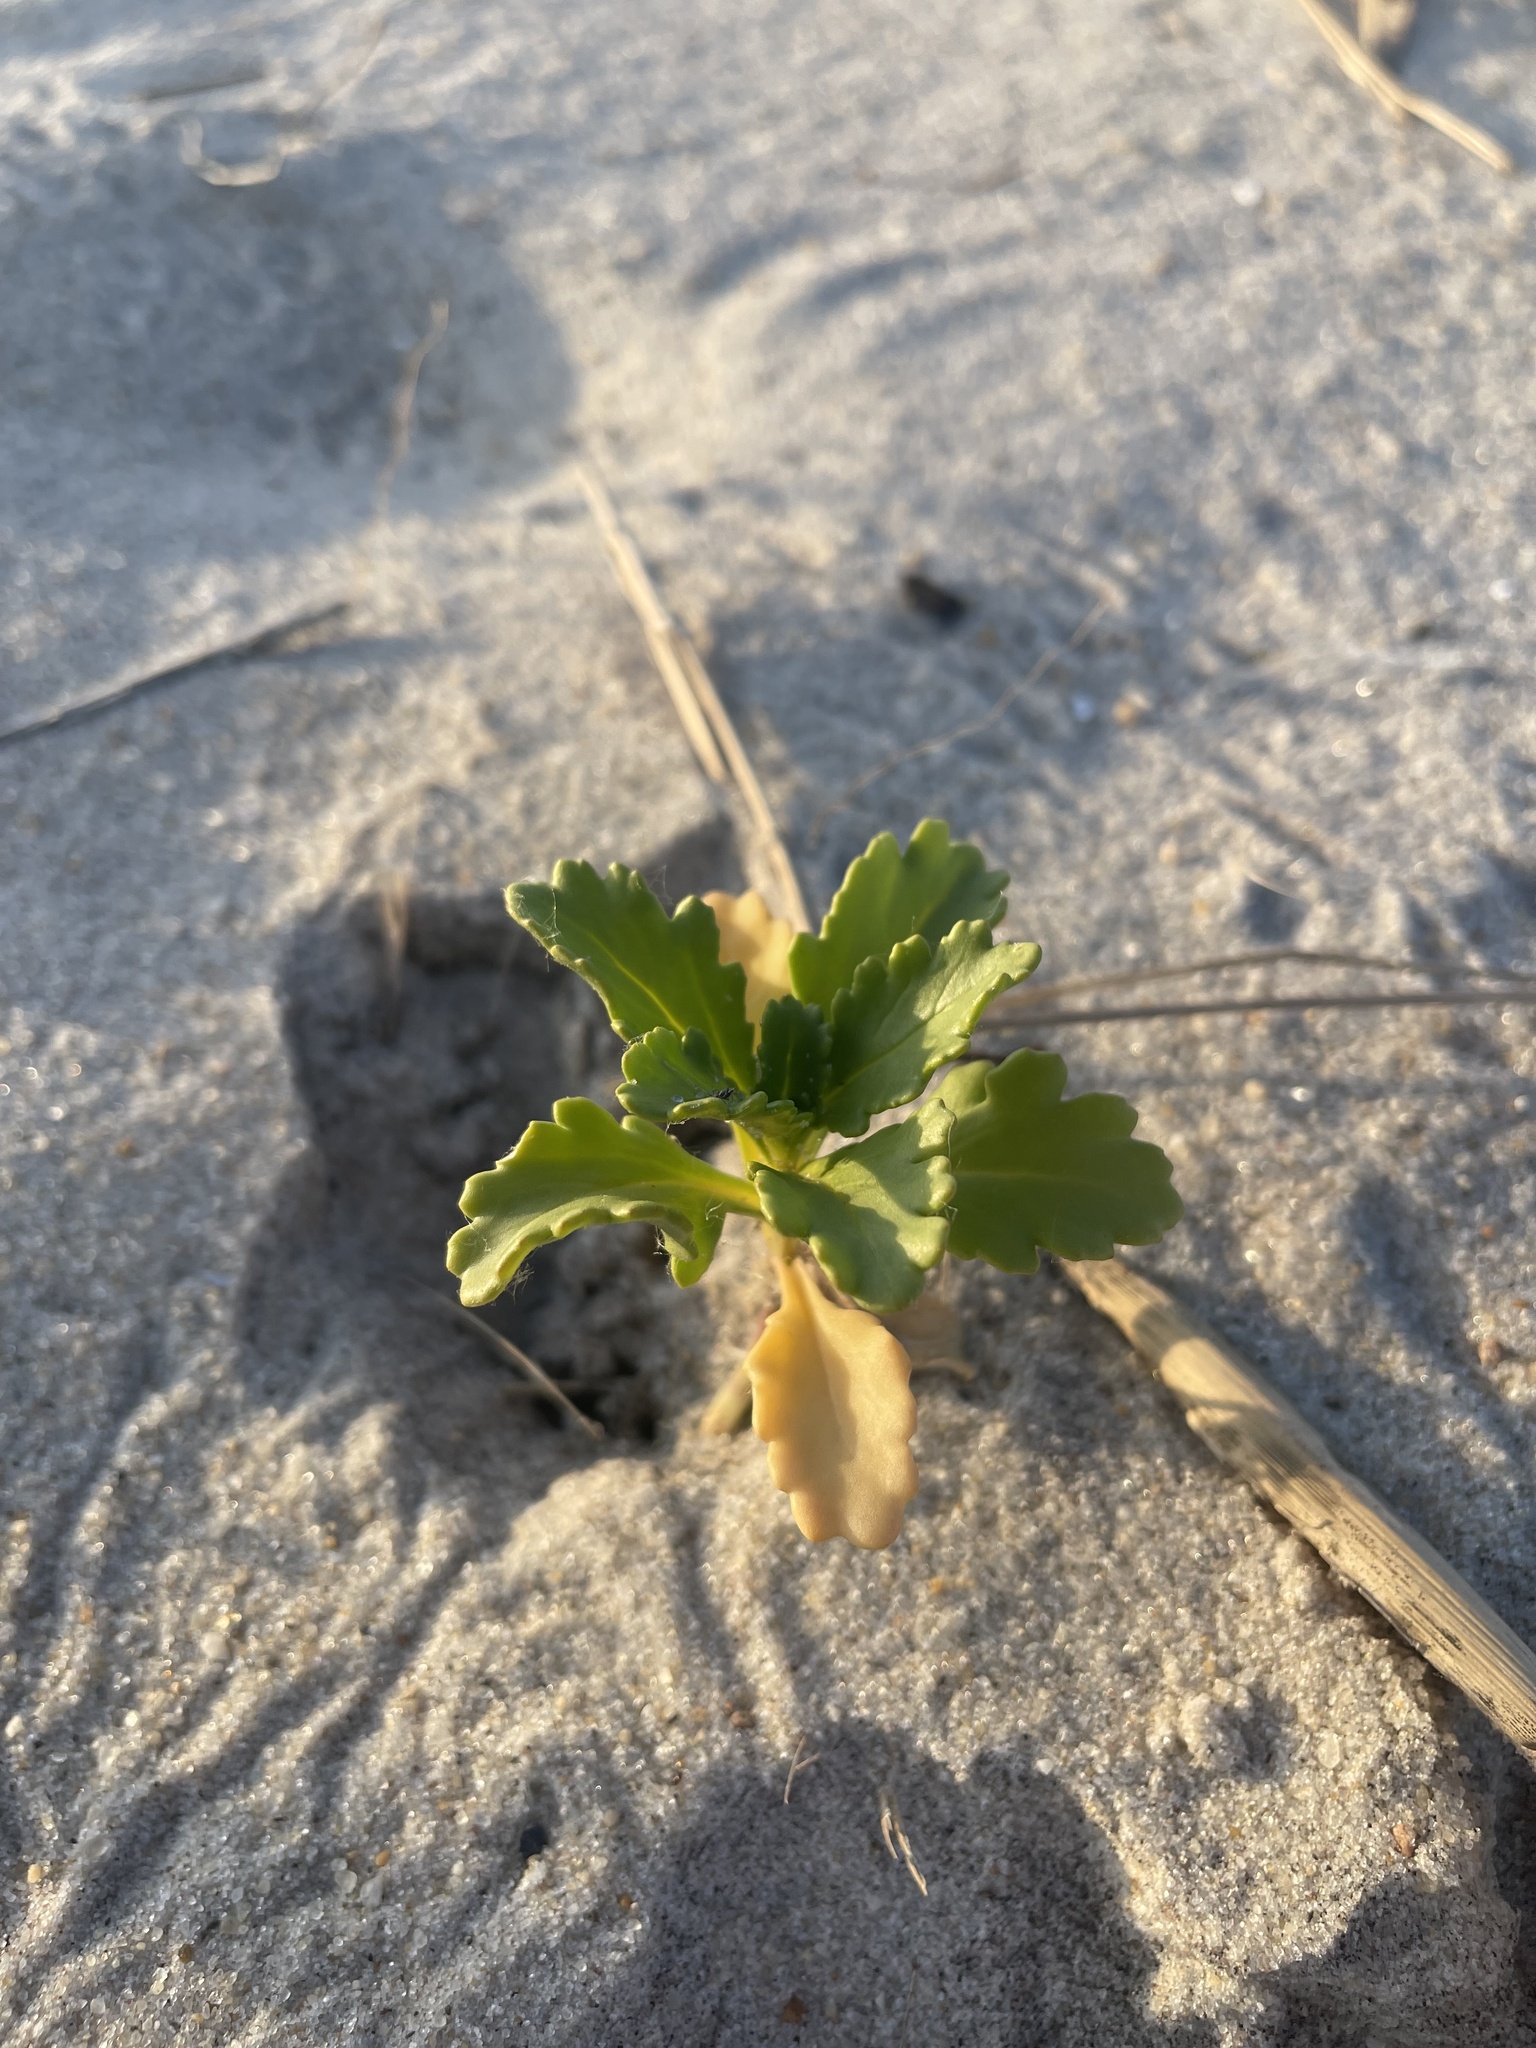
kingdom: Plantae
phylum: Tracheophyta
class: Magnoliopsida
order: Brassicales
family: Brassicaceae
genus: Cakile
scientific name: Cakile edentula
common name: American sea rocket
